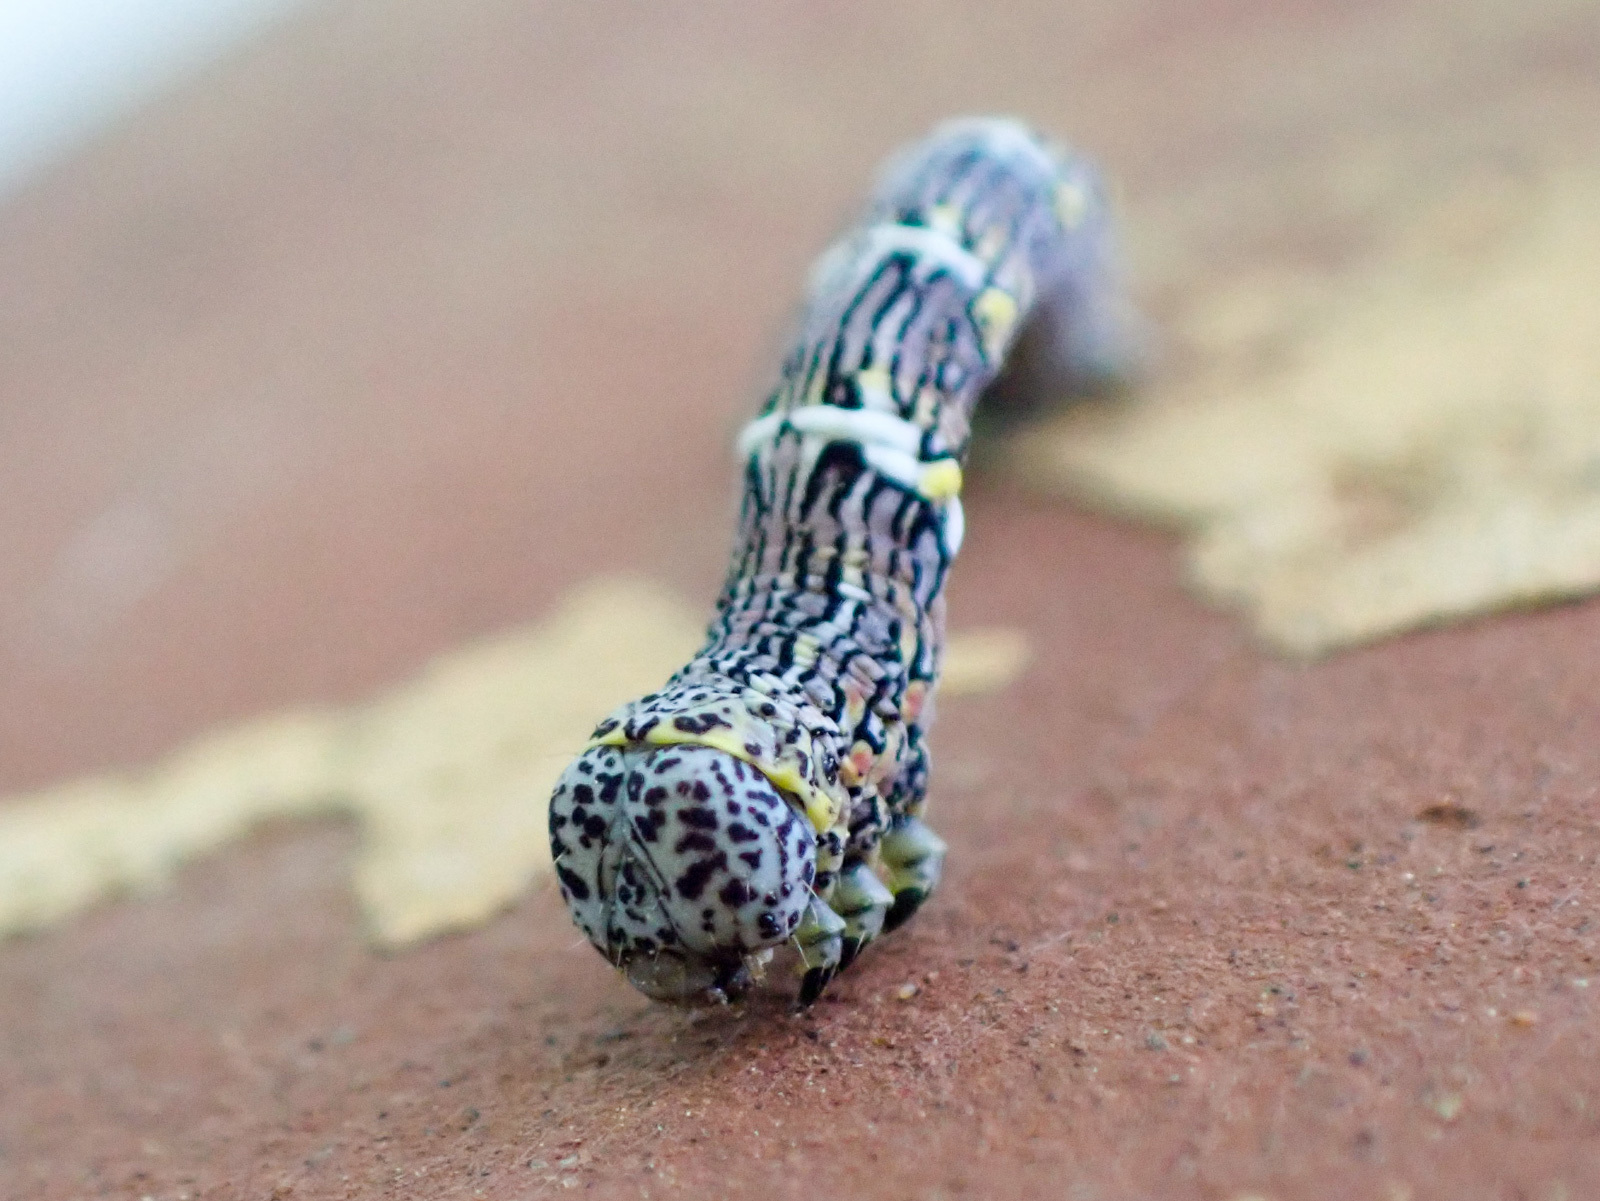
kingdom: Animalia
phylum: Arthropoda
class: Insecta
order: Lepidoptera
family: Geometridae
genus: Lycia
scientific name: Lycia ypsilon
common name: Wooly gray
